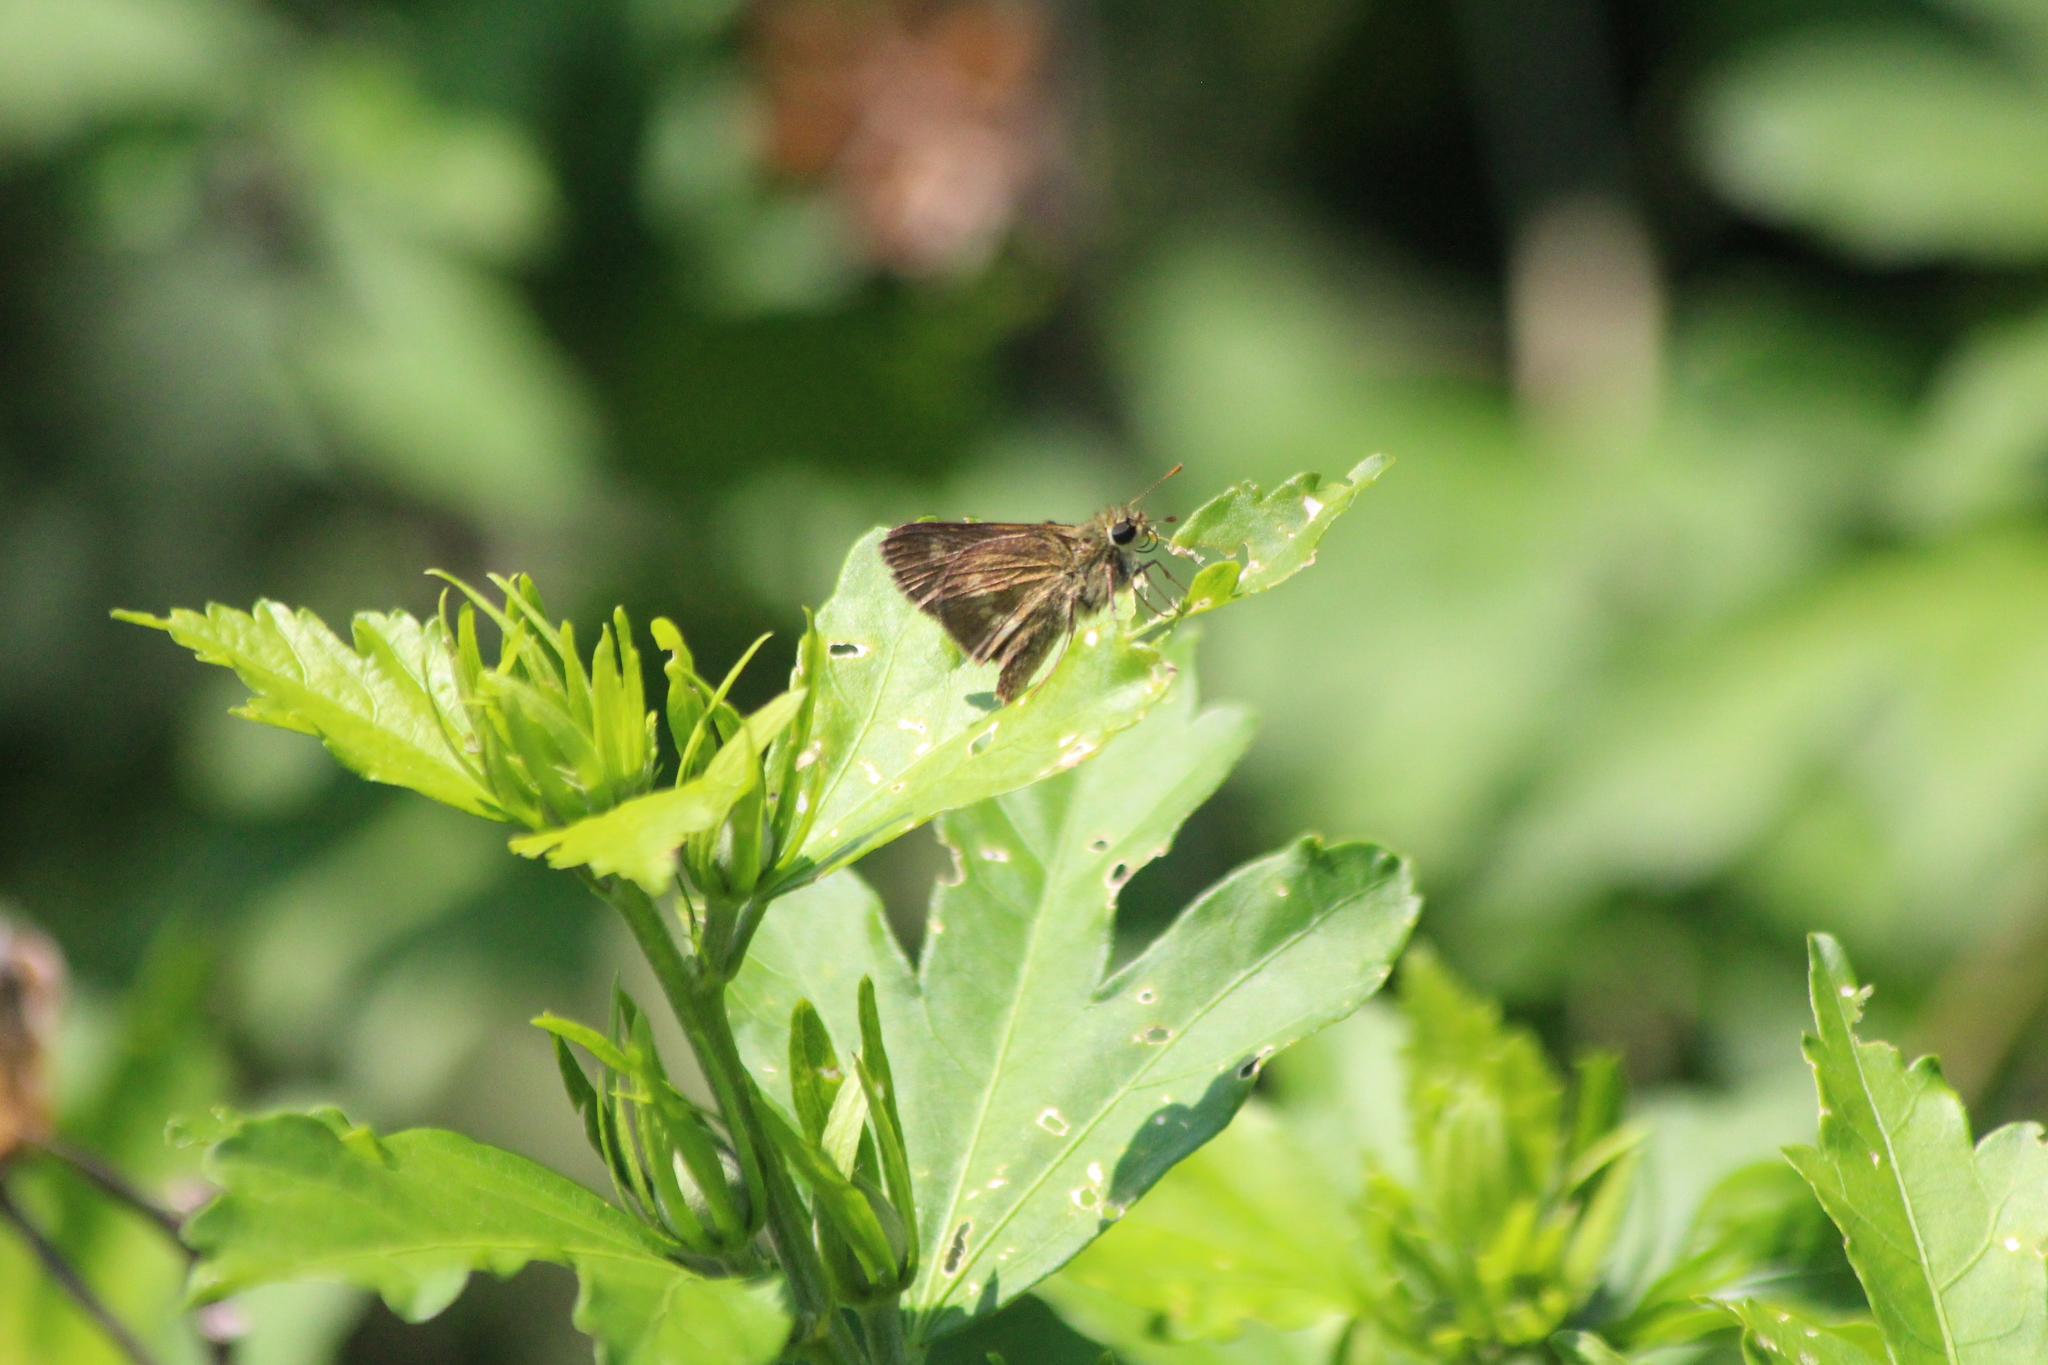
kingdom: Animalia
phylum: Arthropoda
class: Insecta
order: Lepidoptera
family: Hesperiidae
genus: Polites
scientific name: Polites egeremet
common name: Northern broken-dash
